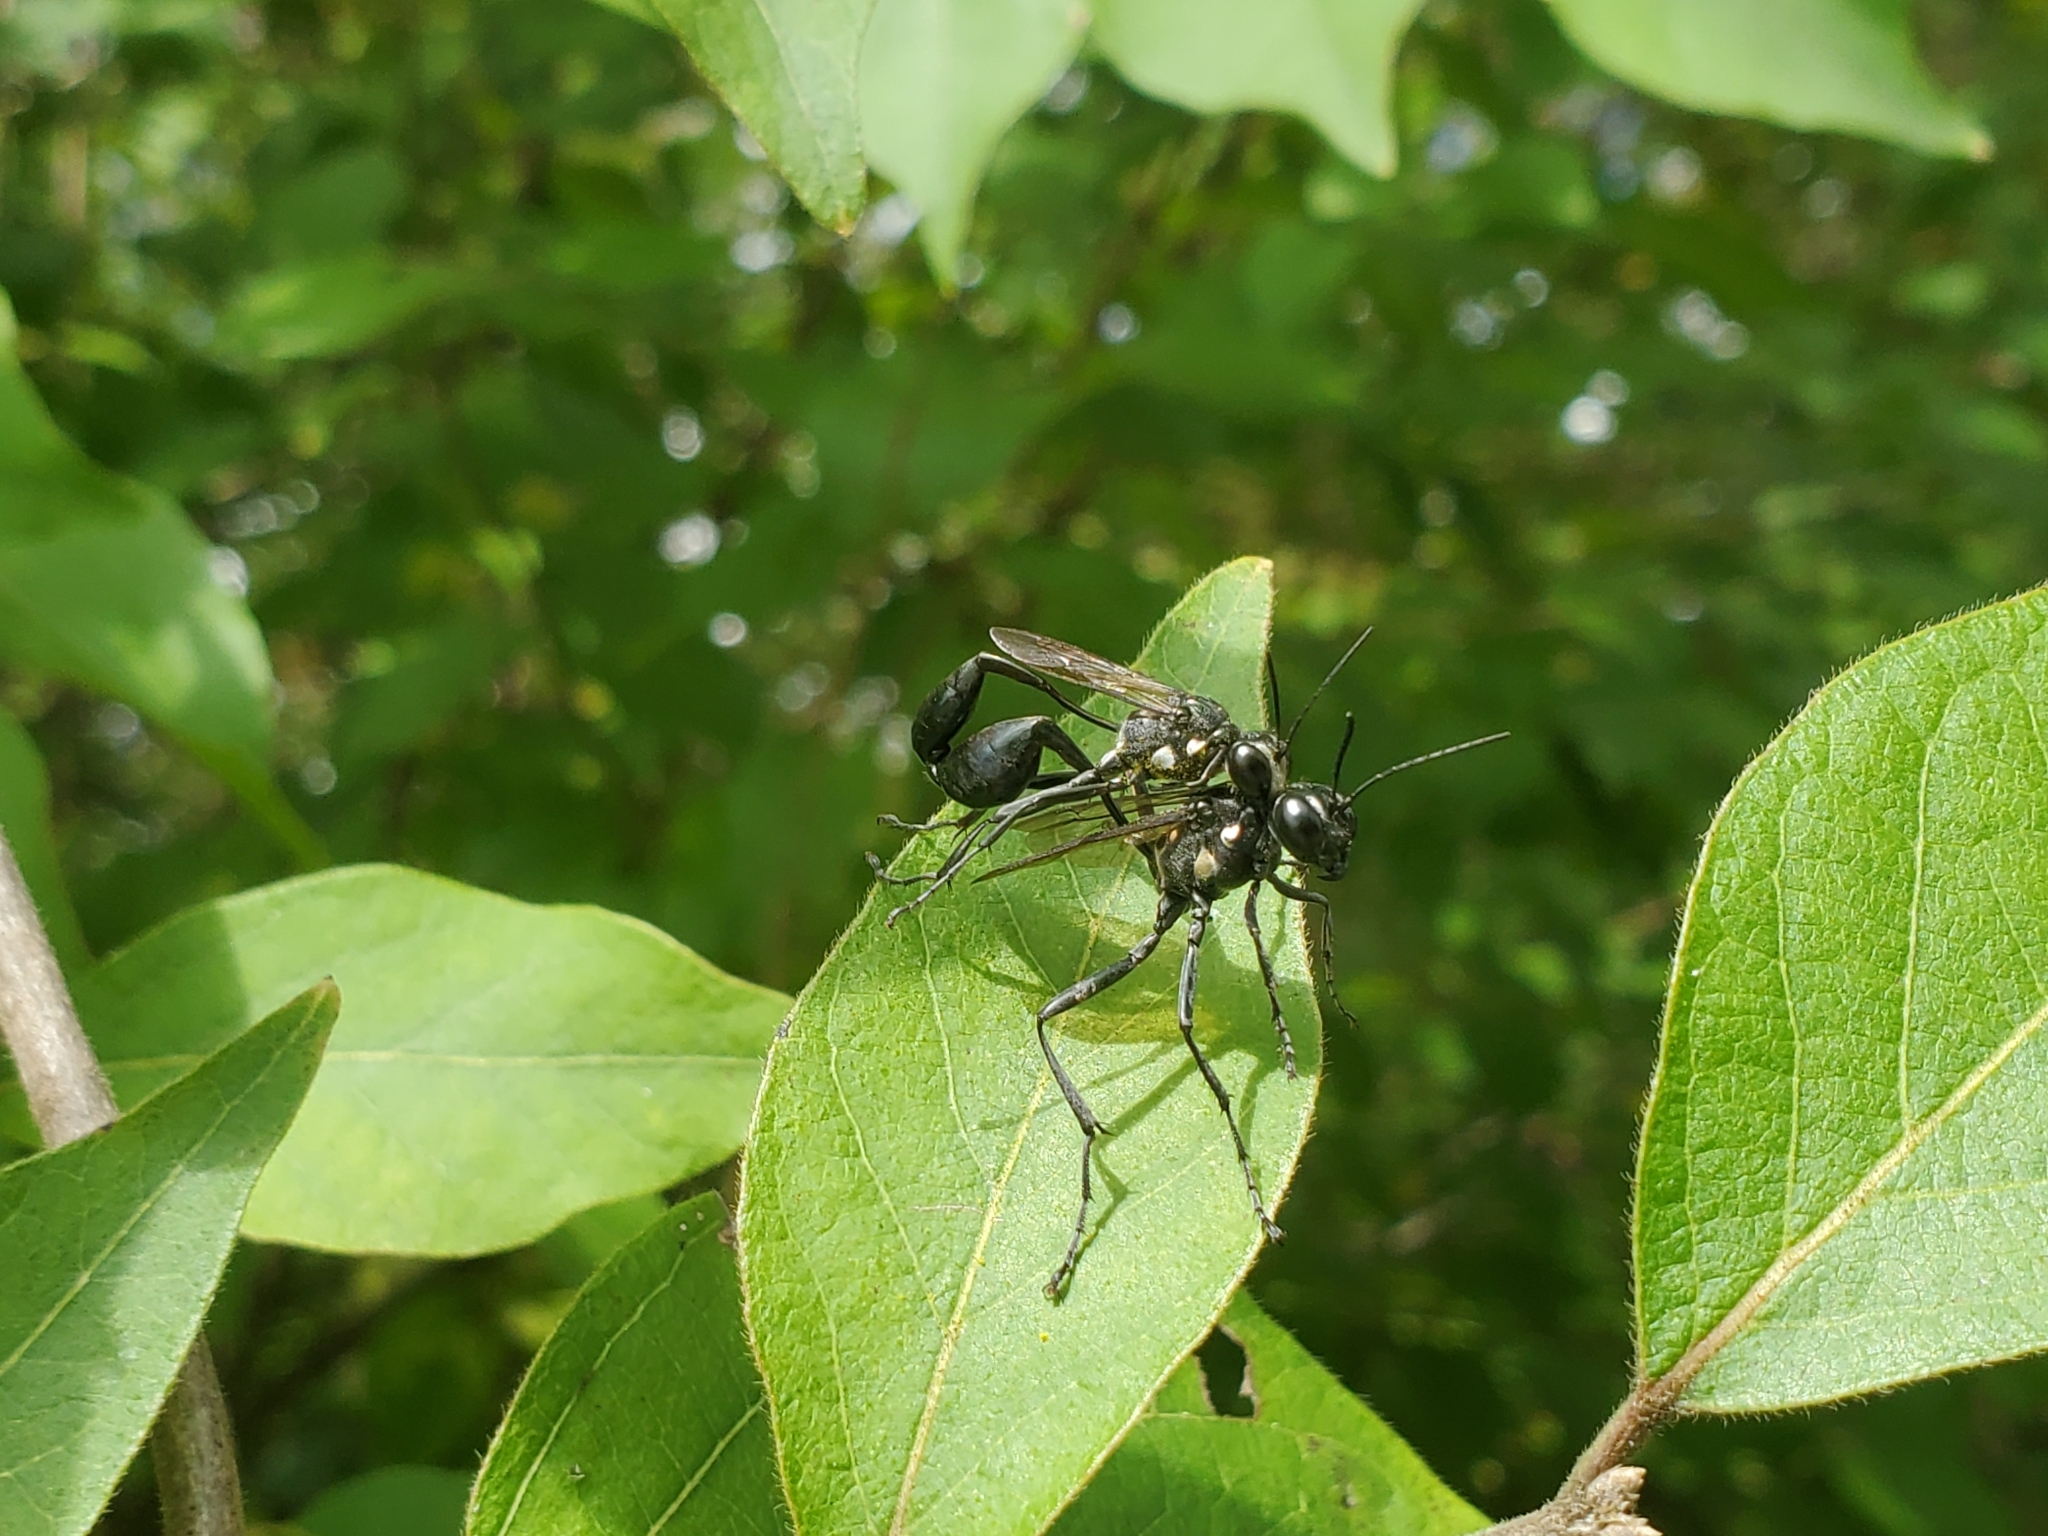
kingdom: Animalia
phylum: Arthropoda
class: Insecta
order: Hymenoptera
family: Sphecidae
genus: Eremnophila
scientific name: Eremnophila aureonotata
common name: Gold-marked thread-waisted wasp
